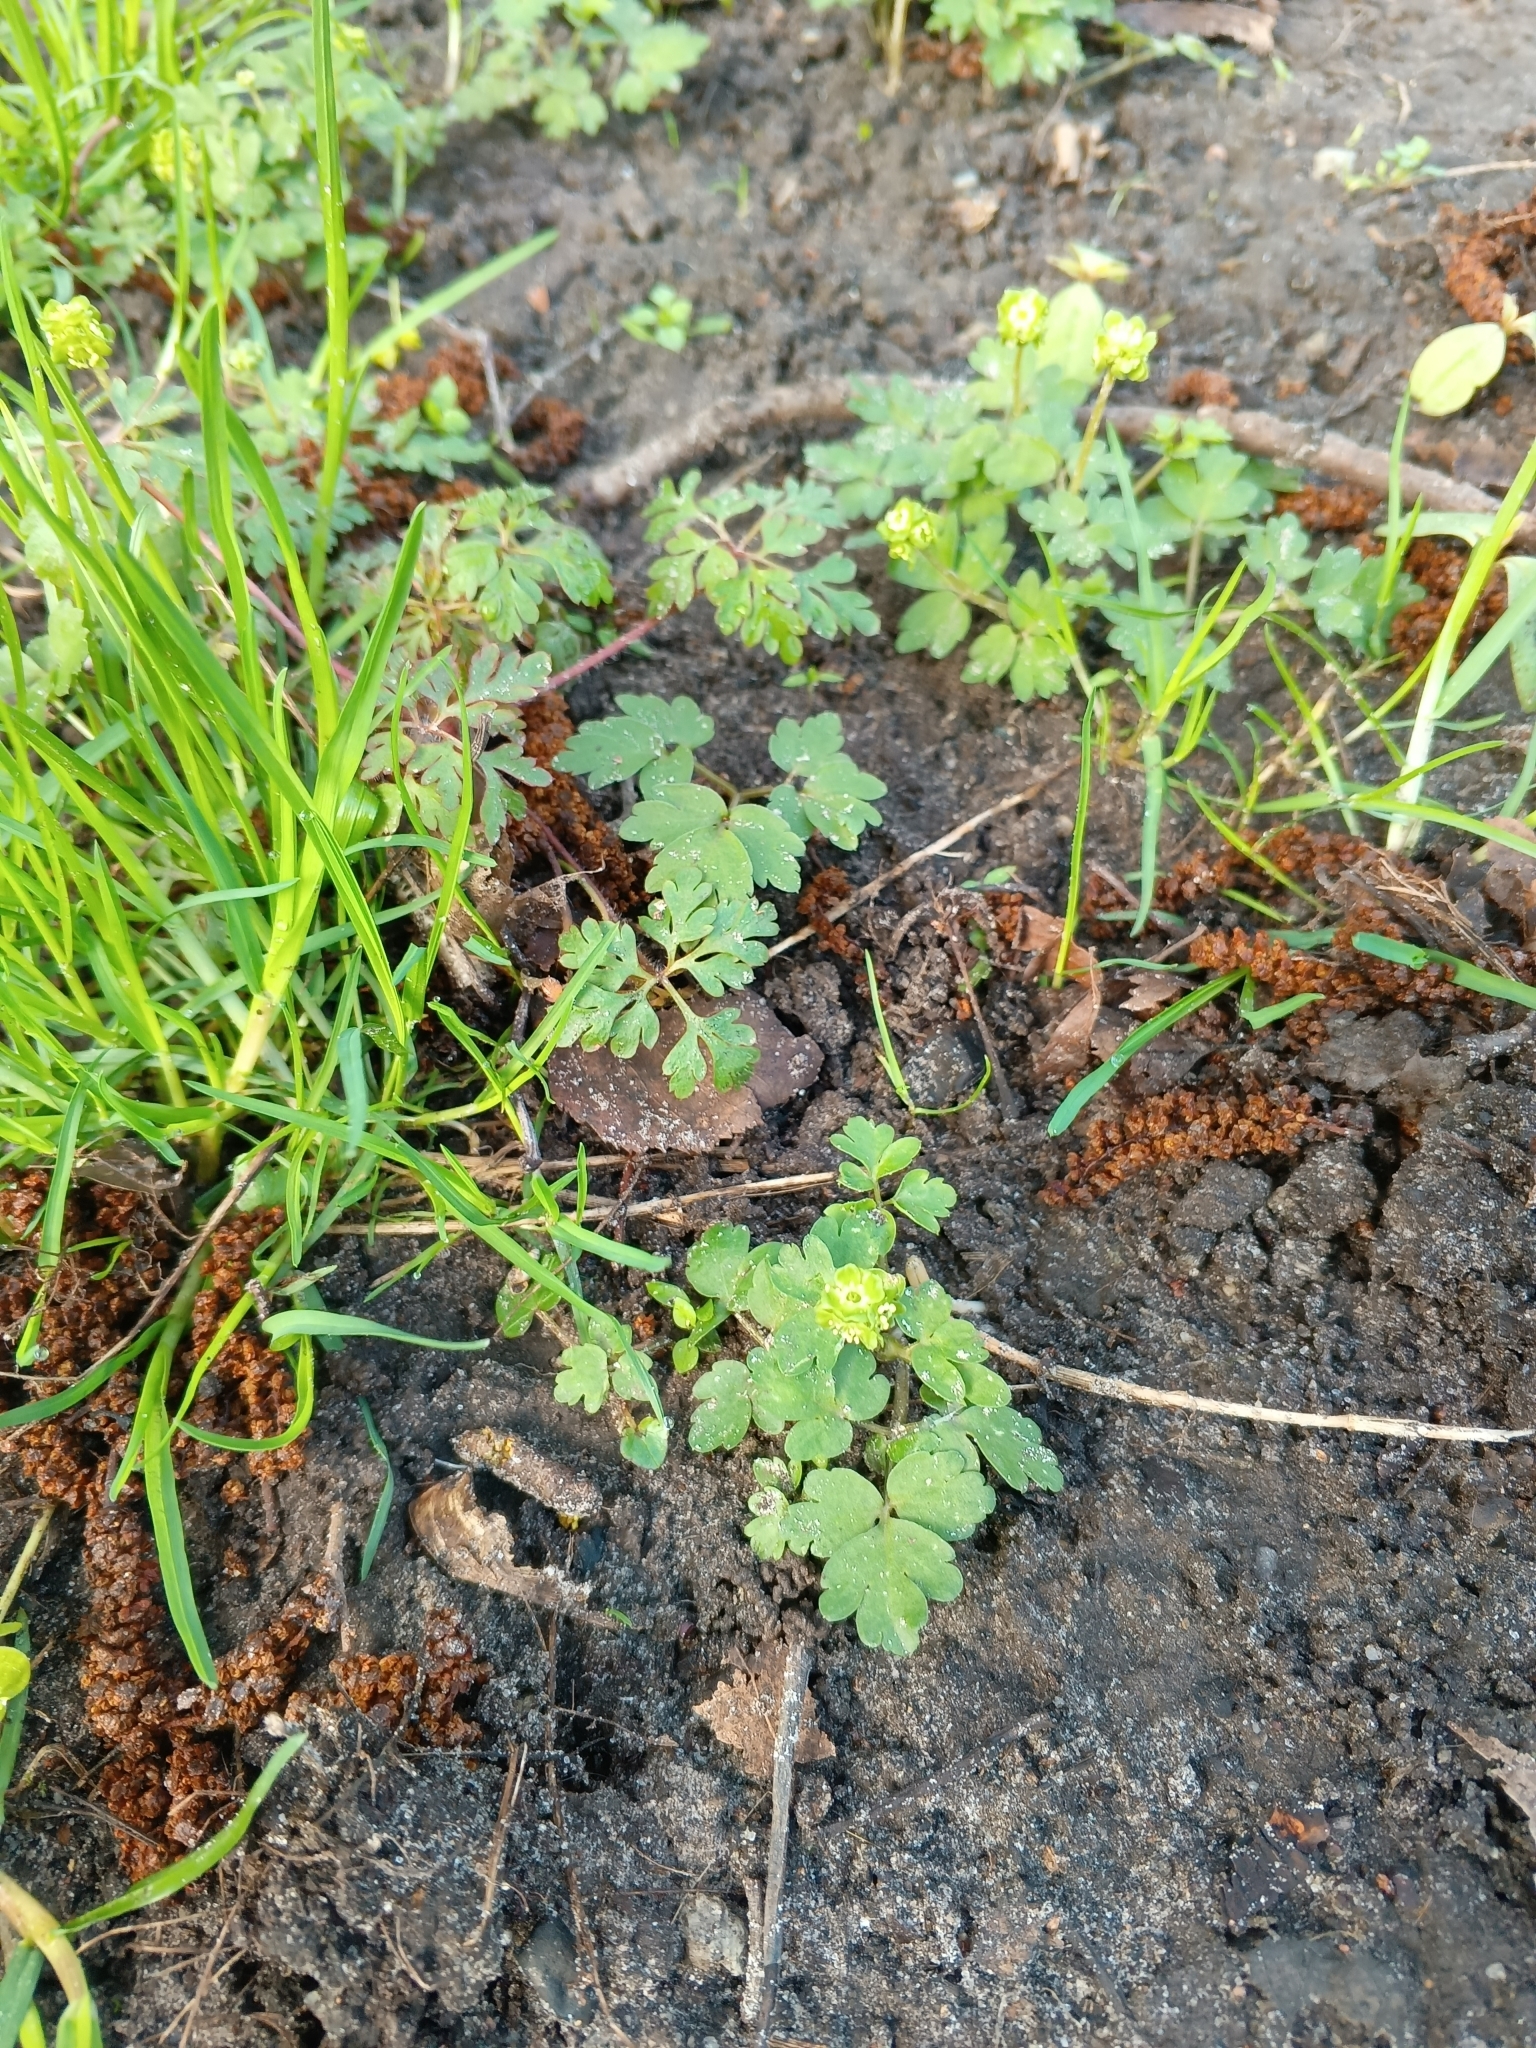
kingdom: Plantae
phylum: Tracheophyta
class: Magnoliopsida
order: Dipsacales
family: Viburnaceae
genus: Adoxa
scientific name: Adoxa moschatellina
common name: Moschatel
